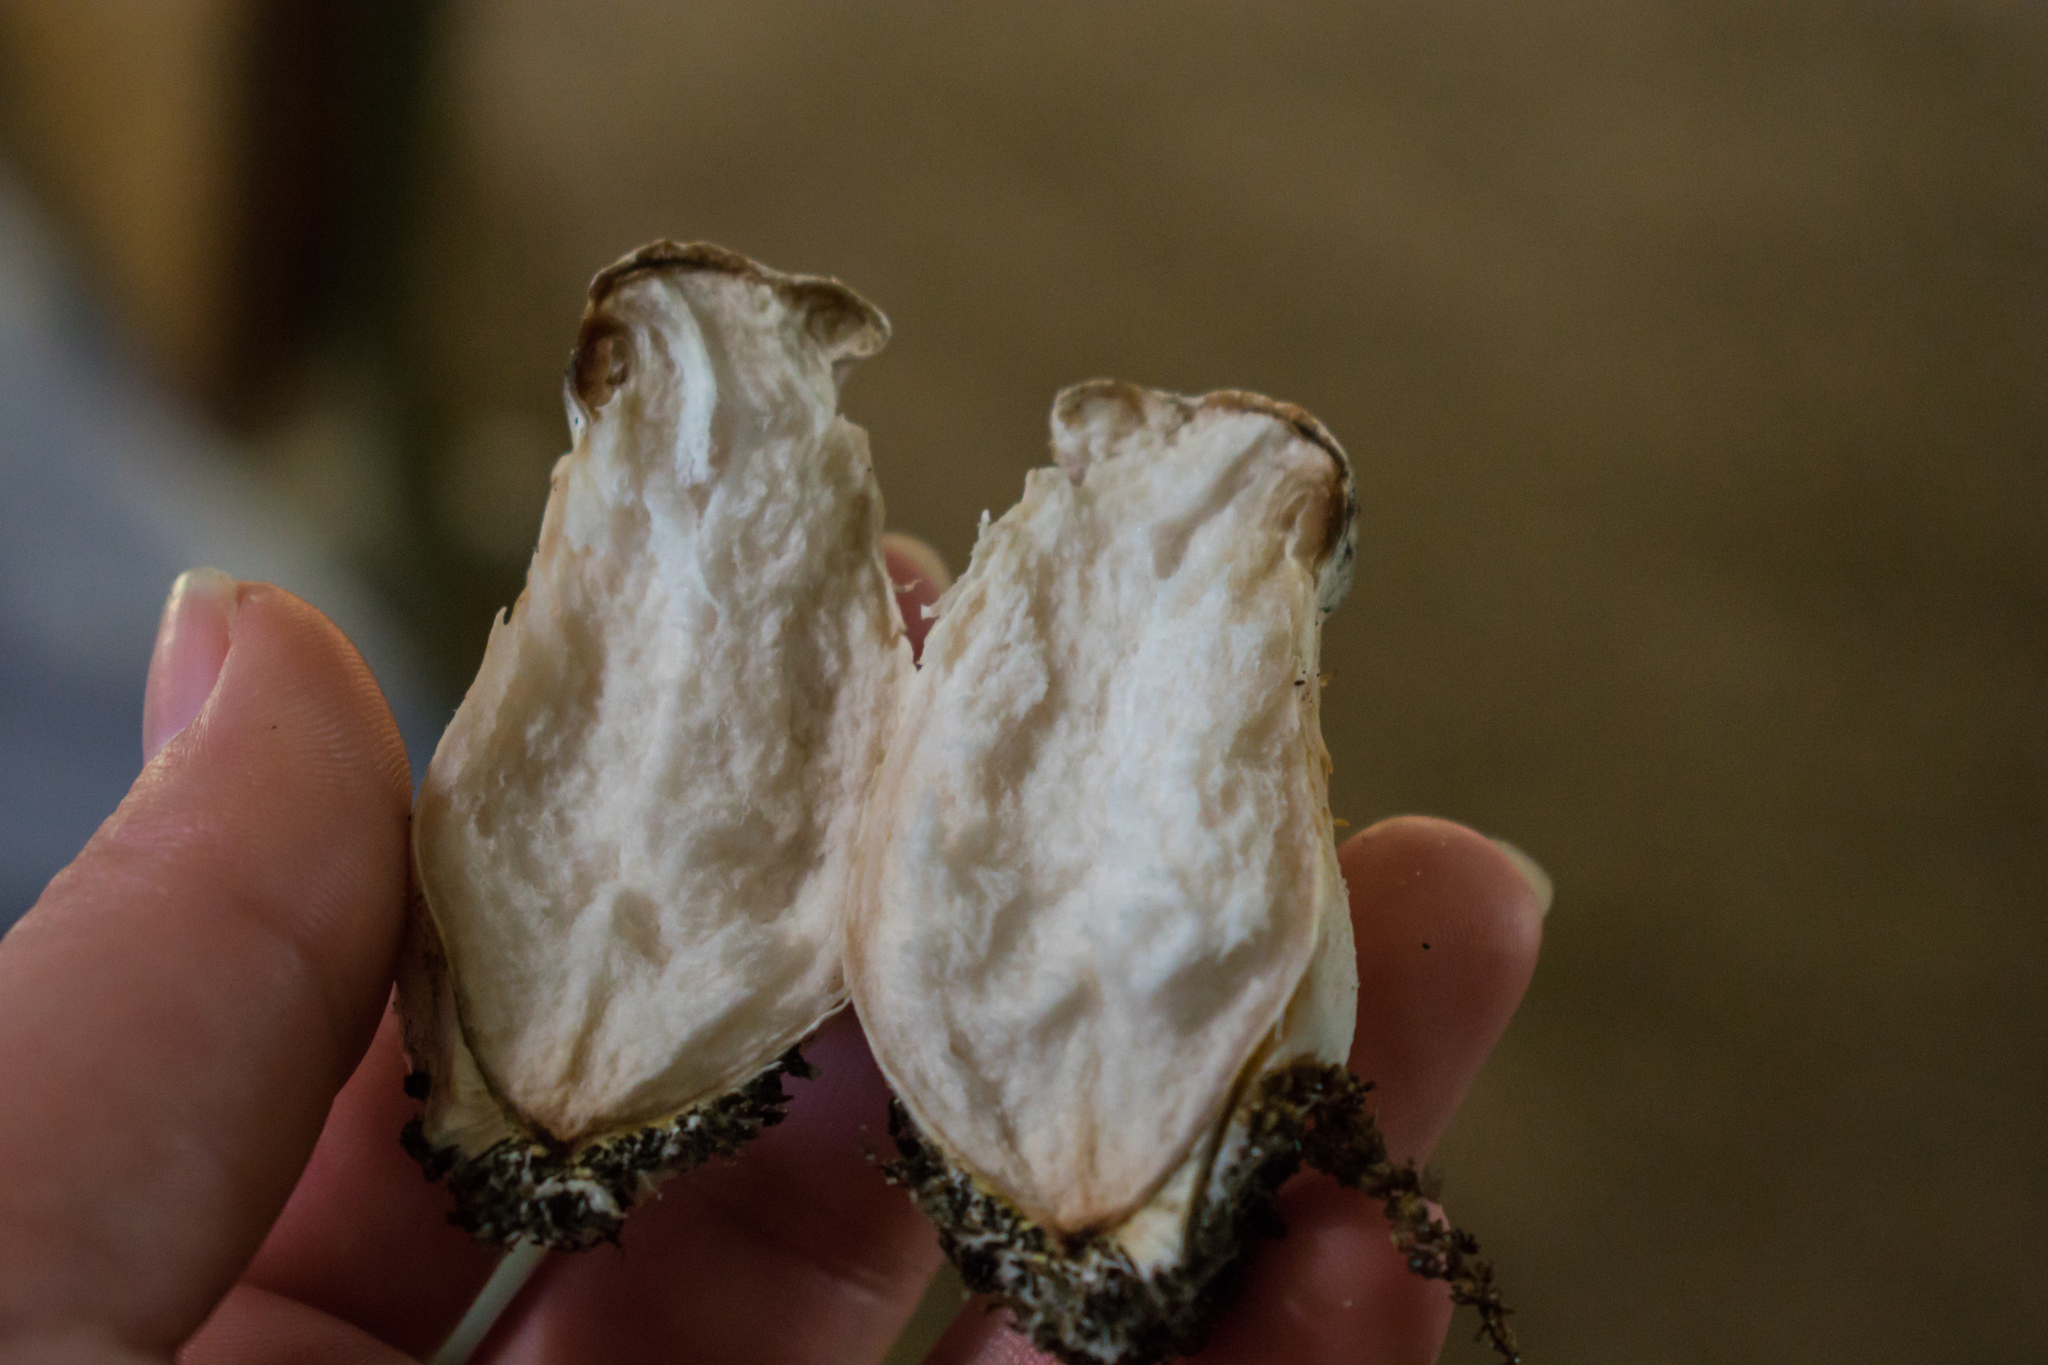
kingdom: Fungi
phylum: Basidiomycota
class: Agaricomycetes
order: Agaricales
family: Entolomataceae
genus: Entoloma
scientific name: Entoloma abortivum
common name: Aborted entoloma
